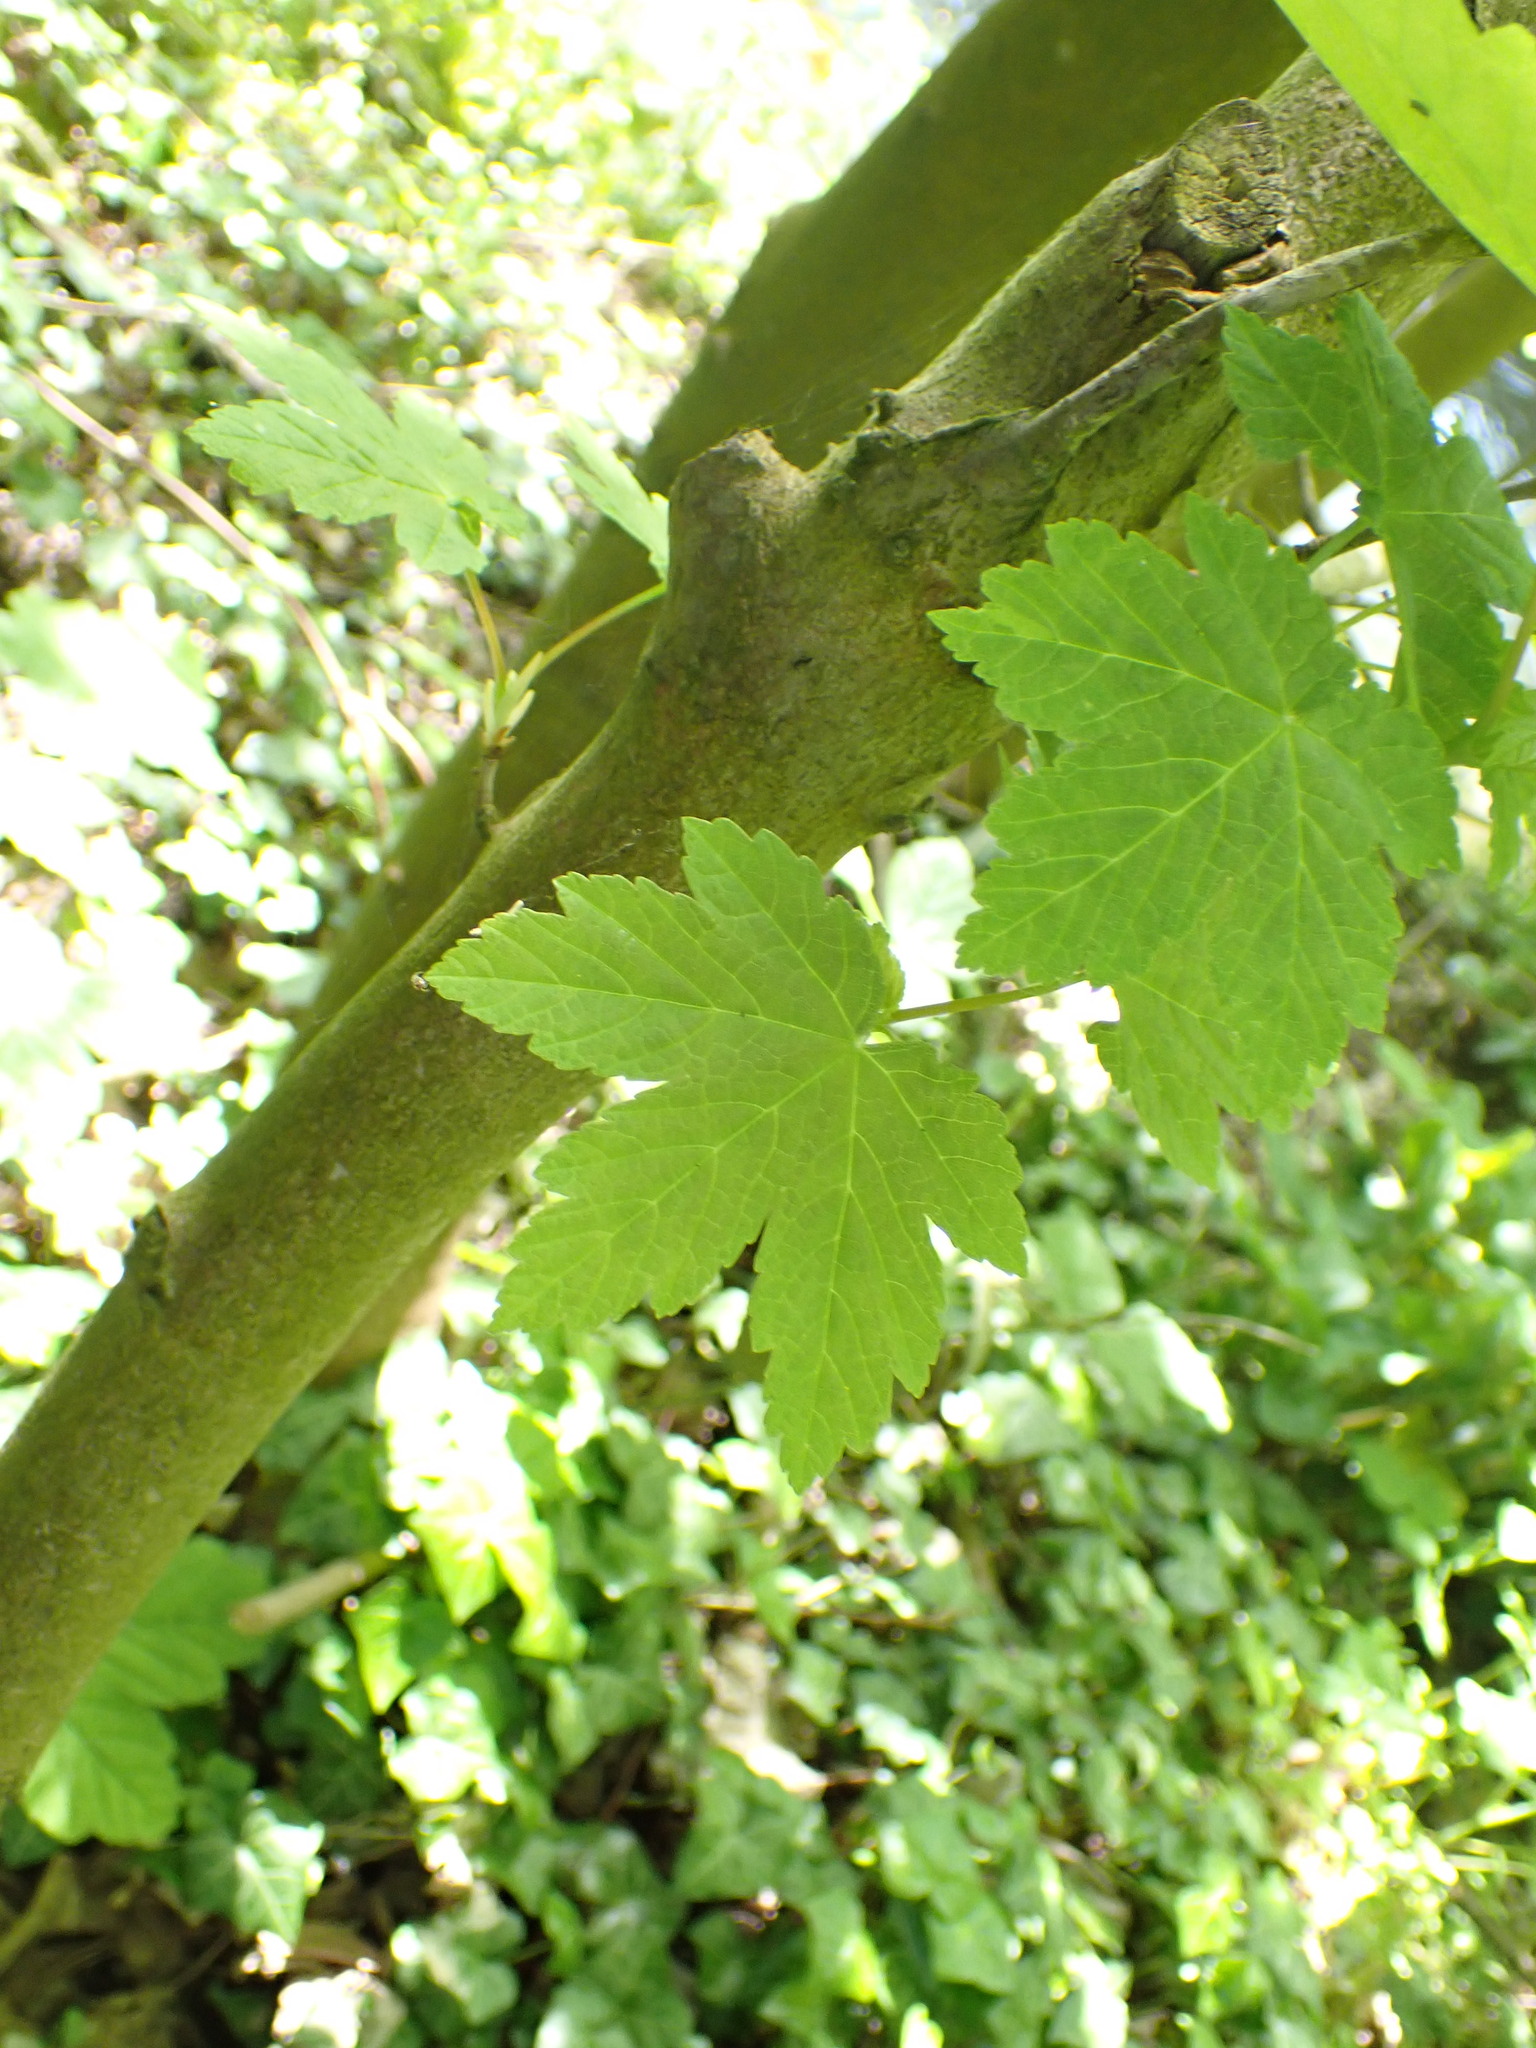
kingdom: Plantae
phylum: Tracheophyta
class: Magnoliopsida
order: Sapindales
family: Sapindaceae
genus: Acer
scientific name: Acer pseudoplatanus
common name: Sycamore
